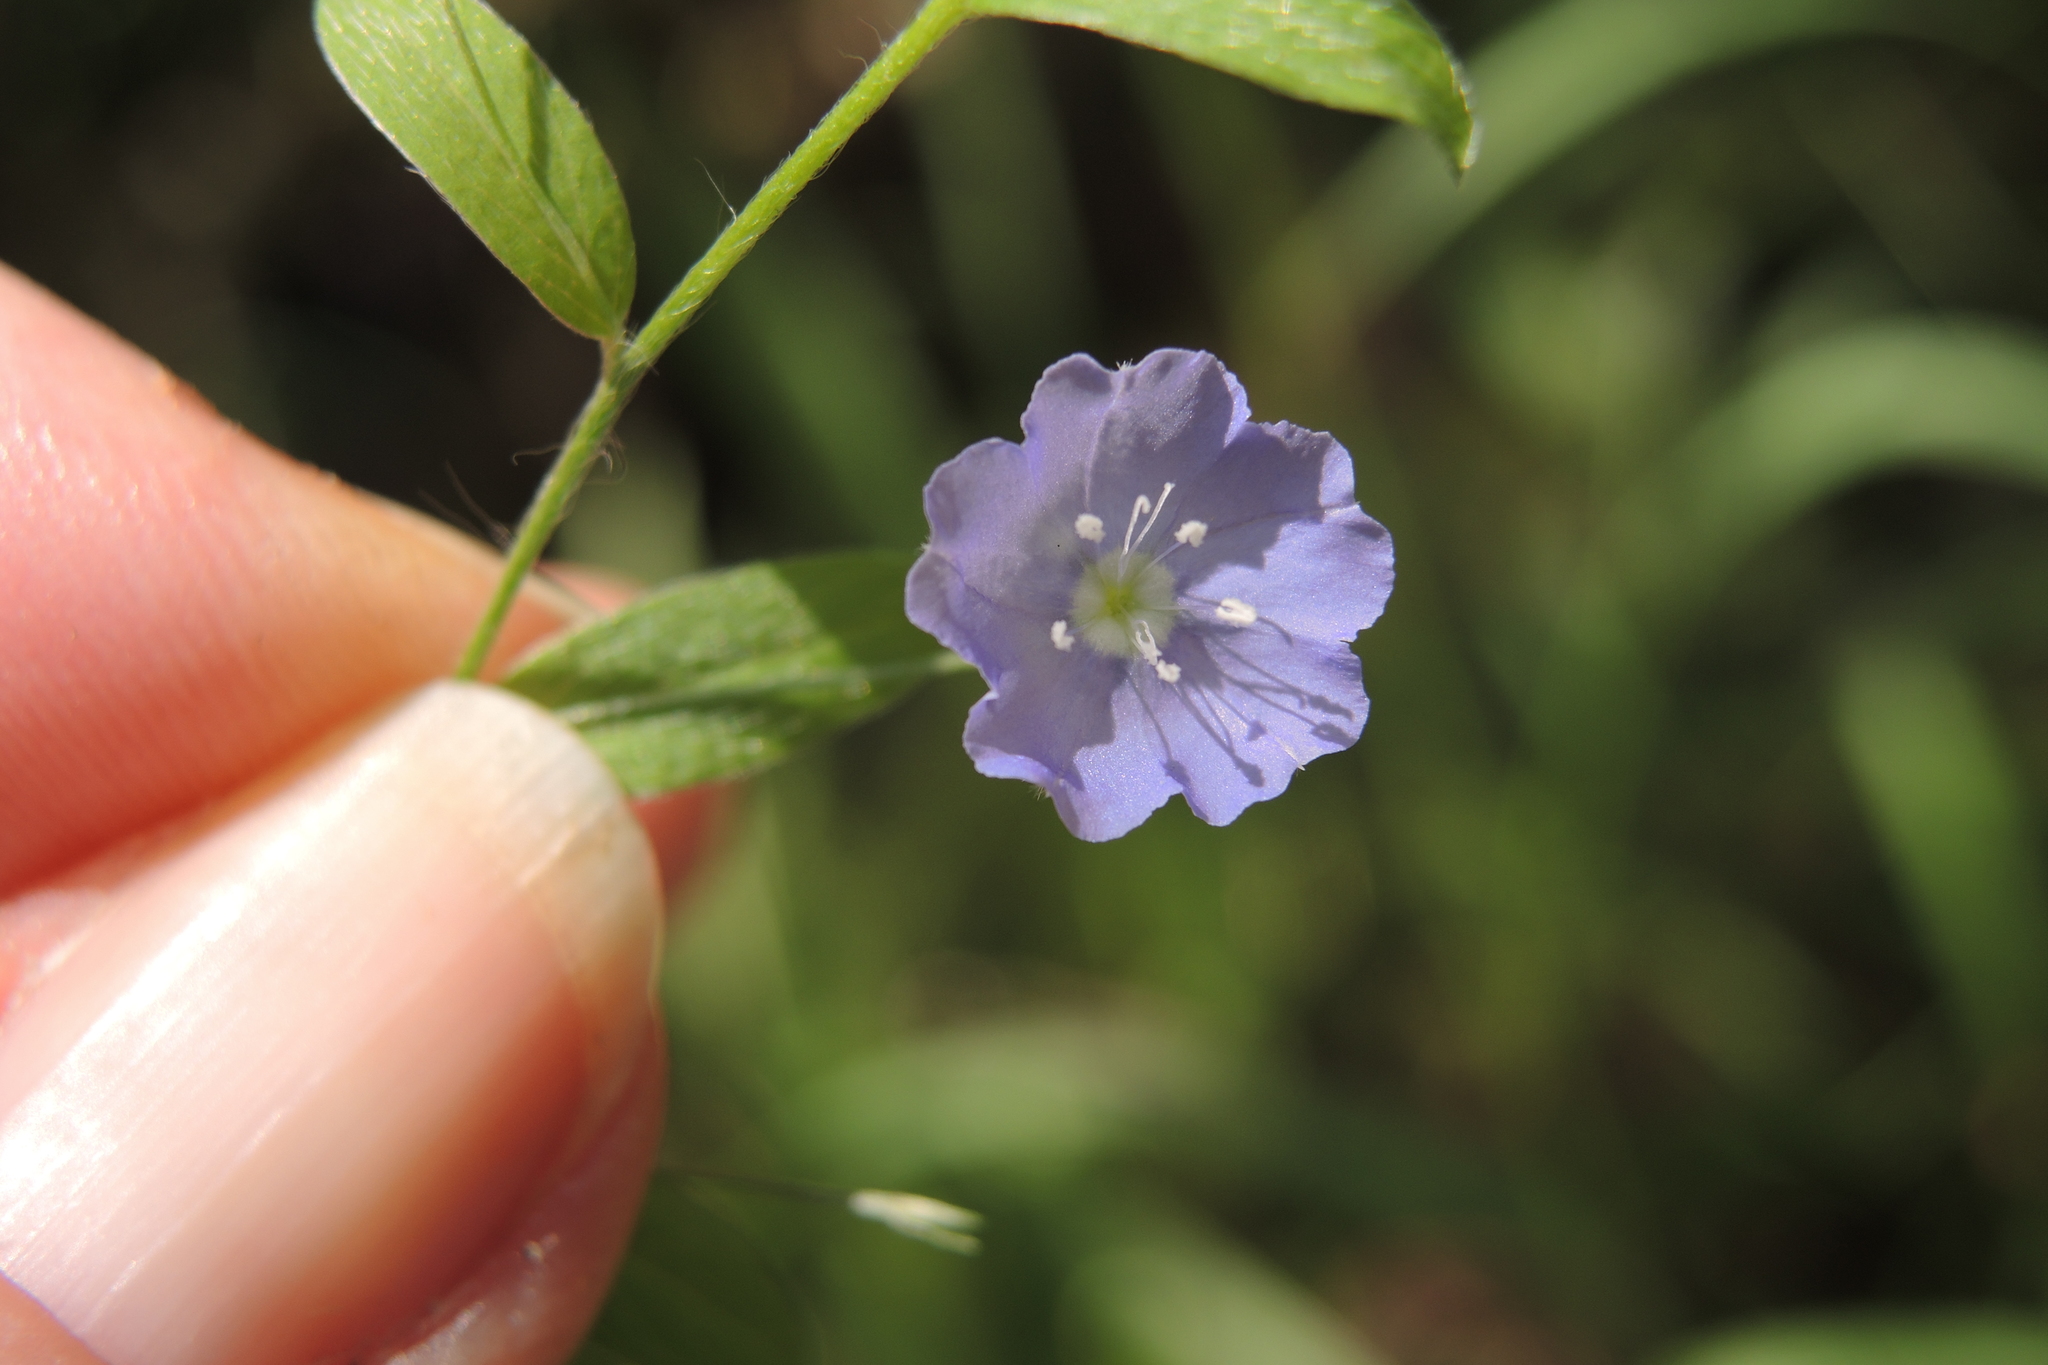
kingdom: Plantae
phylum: Tracheophyta
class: Magnoliopsida
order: Solanales
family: Convolvulaceae
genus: Evolvulus
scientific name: Evolvulus alsinoides
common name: Slender dwarf morning-glory
